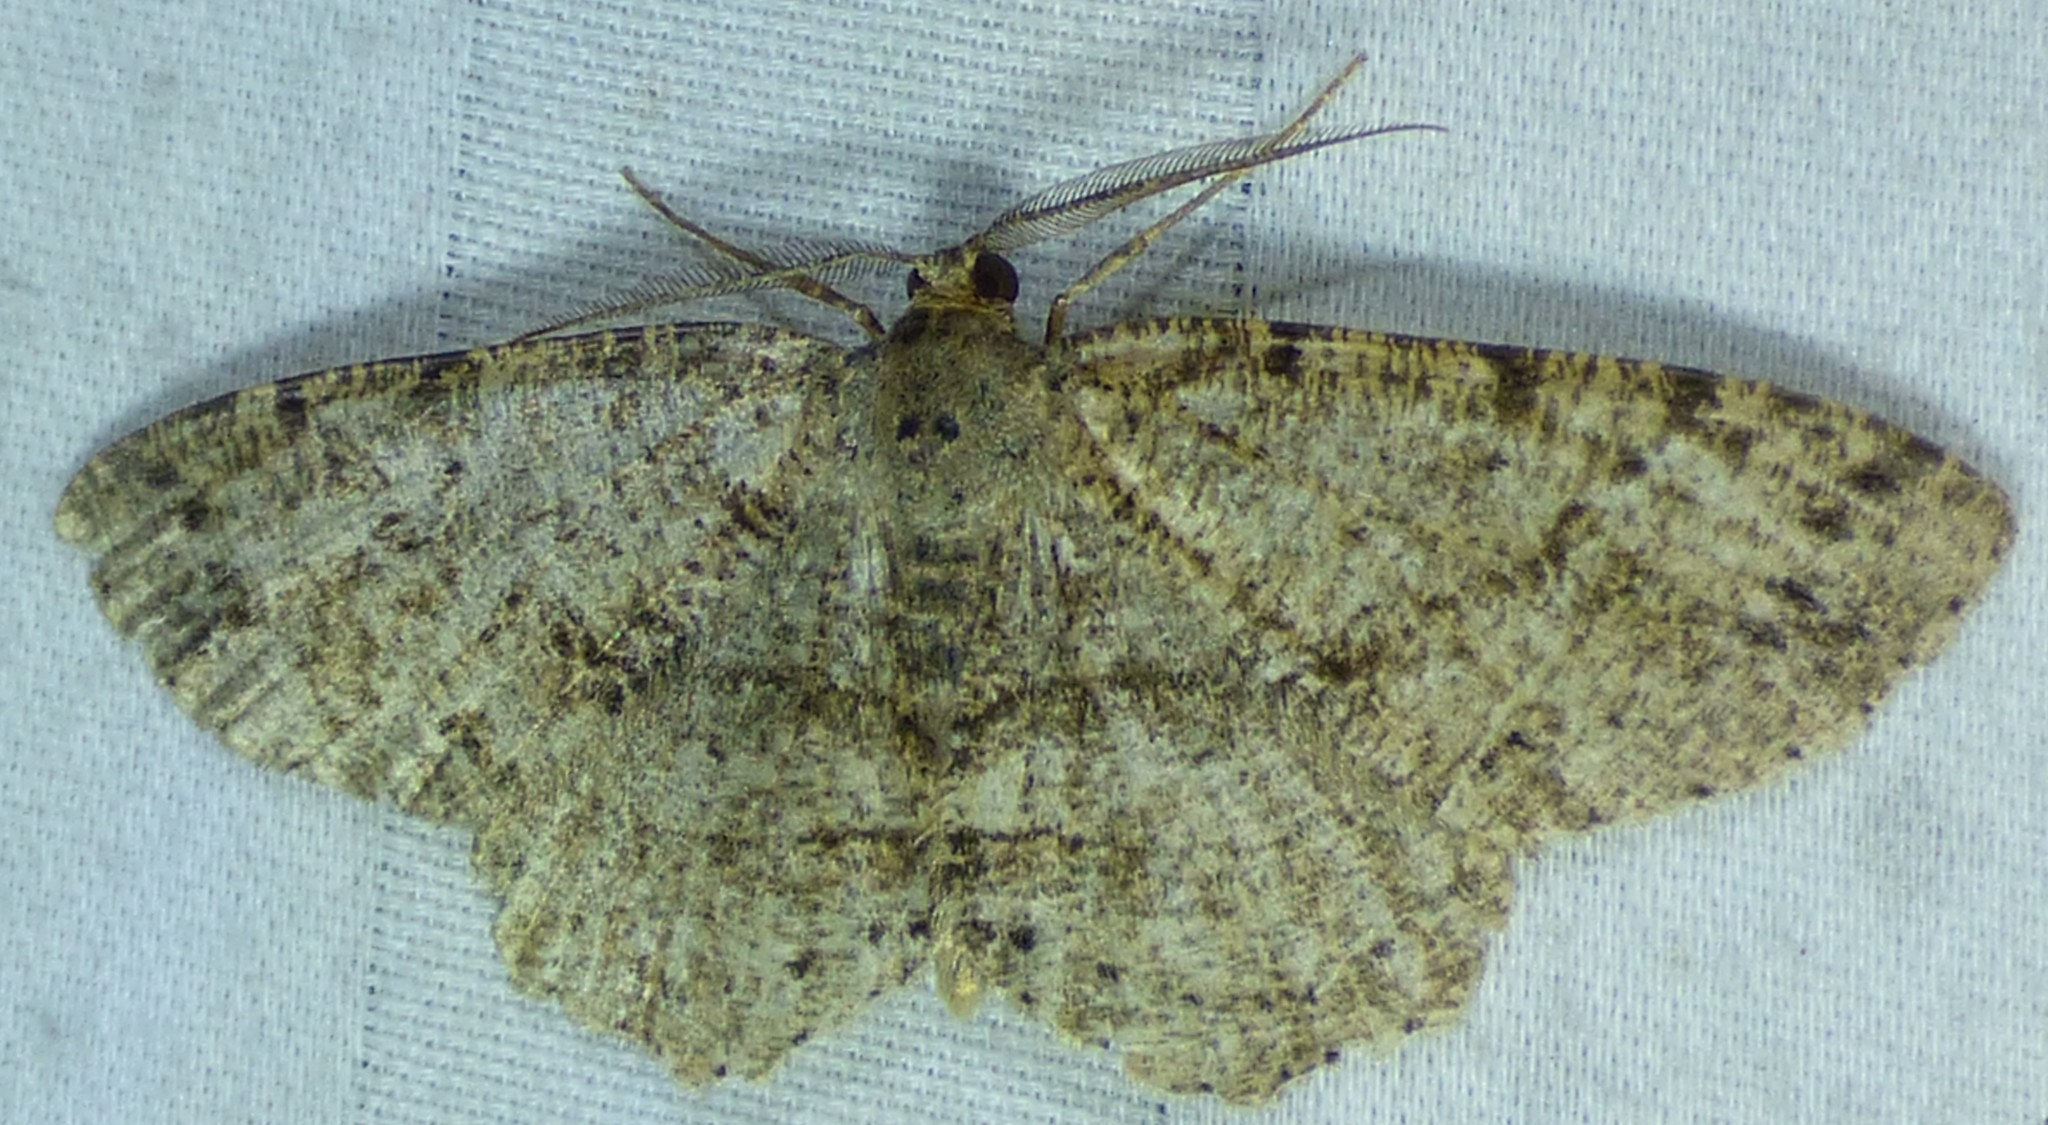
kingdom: Animalia
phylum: Arthropoda
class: Insecta
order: Lepidoptera
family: Geometridae
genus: Melanolophia
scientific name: Melanolophia canadaria
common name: Canadian melanolophia
